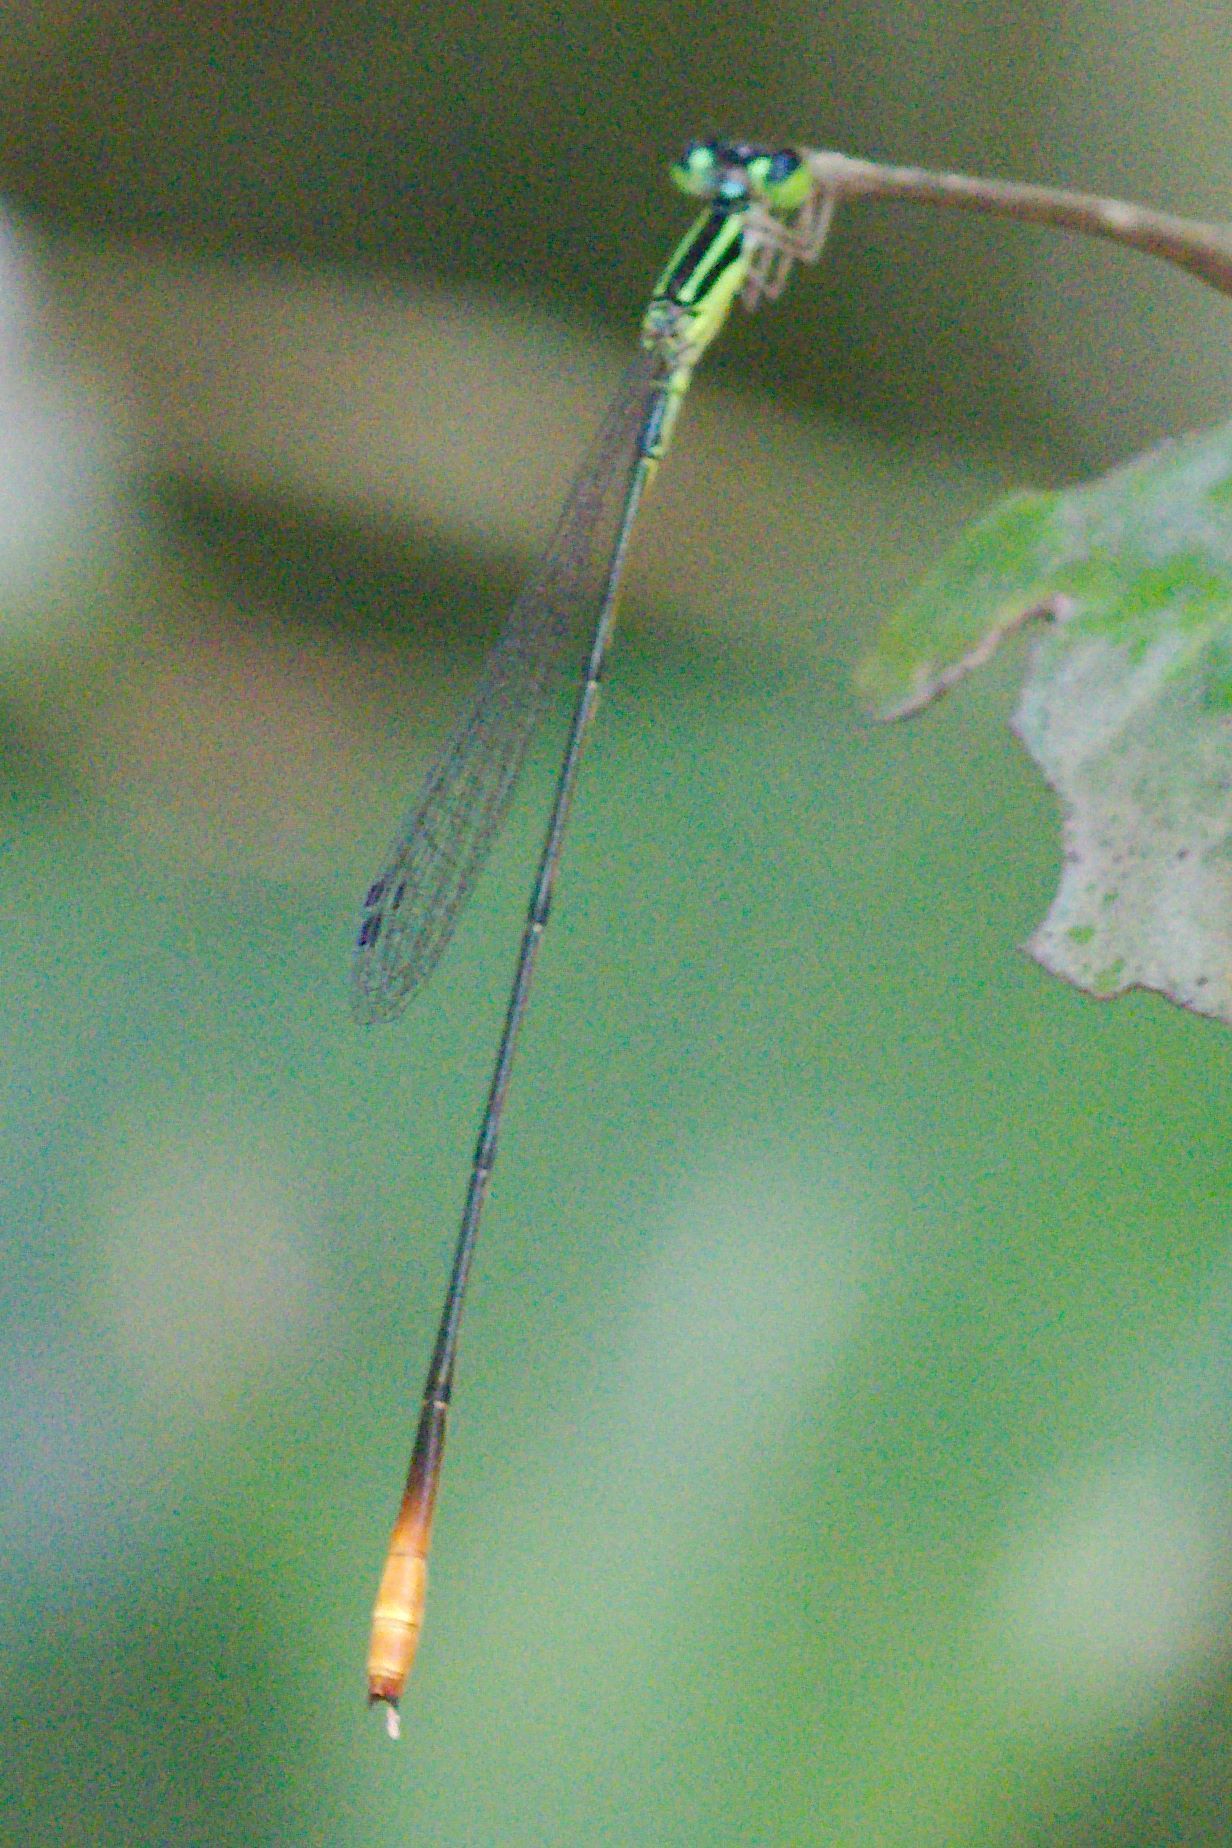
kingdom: Animalia
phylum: Arthropoda
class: Insecta
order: Odonata
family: Coenagrionidae
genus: Leptobasis
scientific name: Leptobasis lucifer
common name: Lucifer swampdamsel
